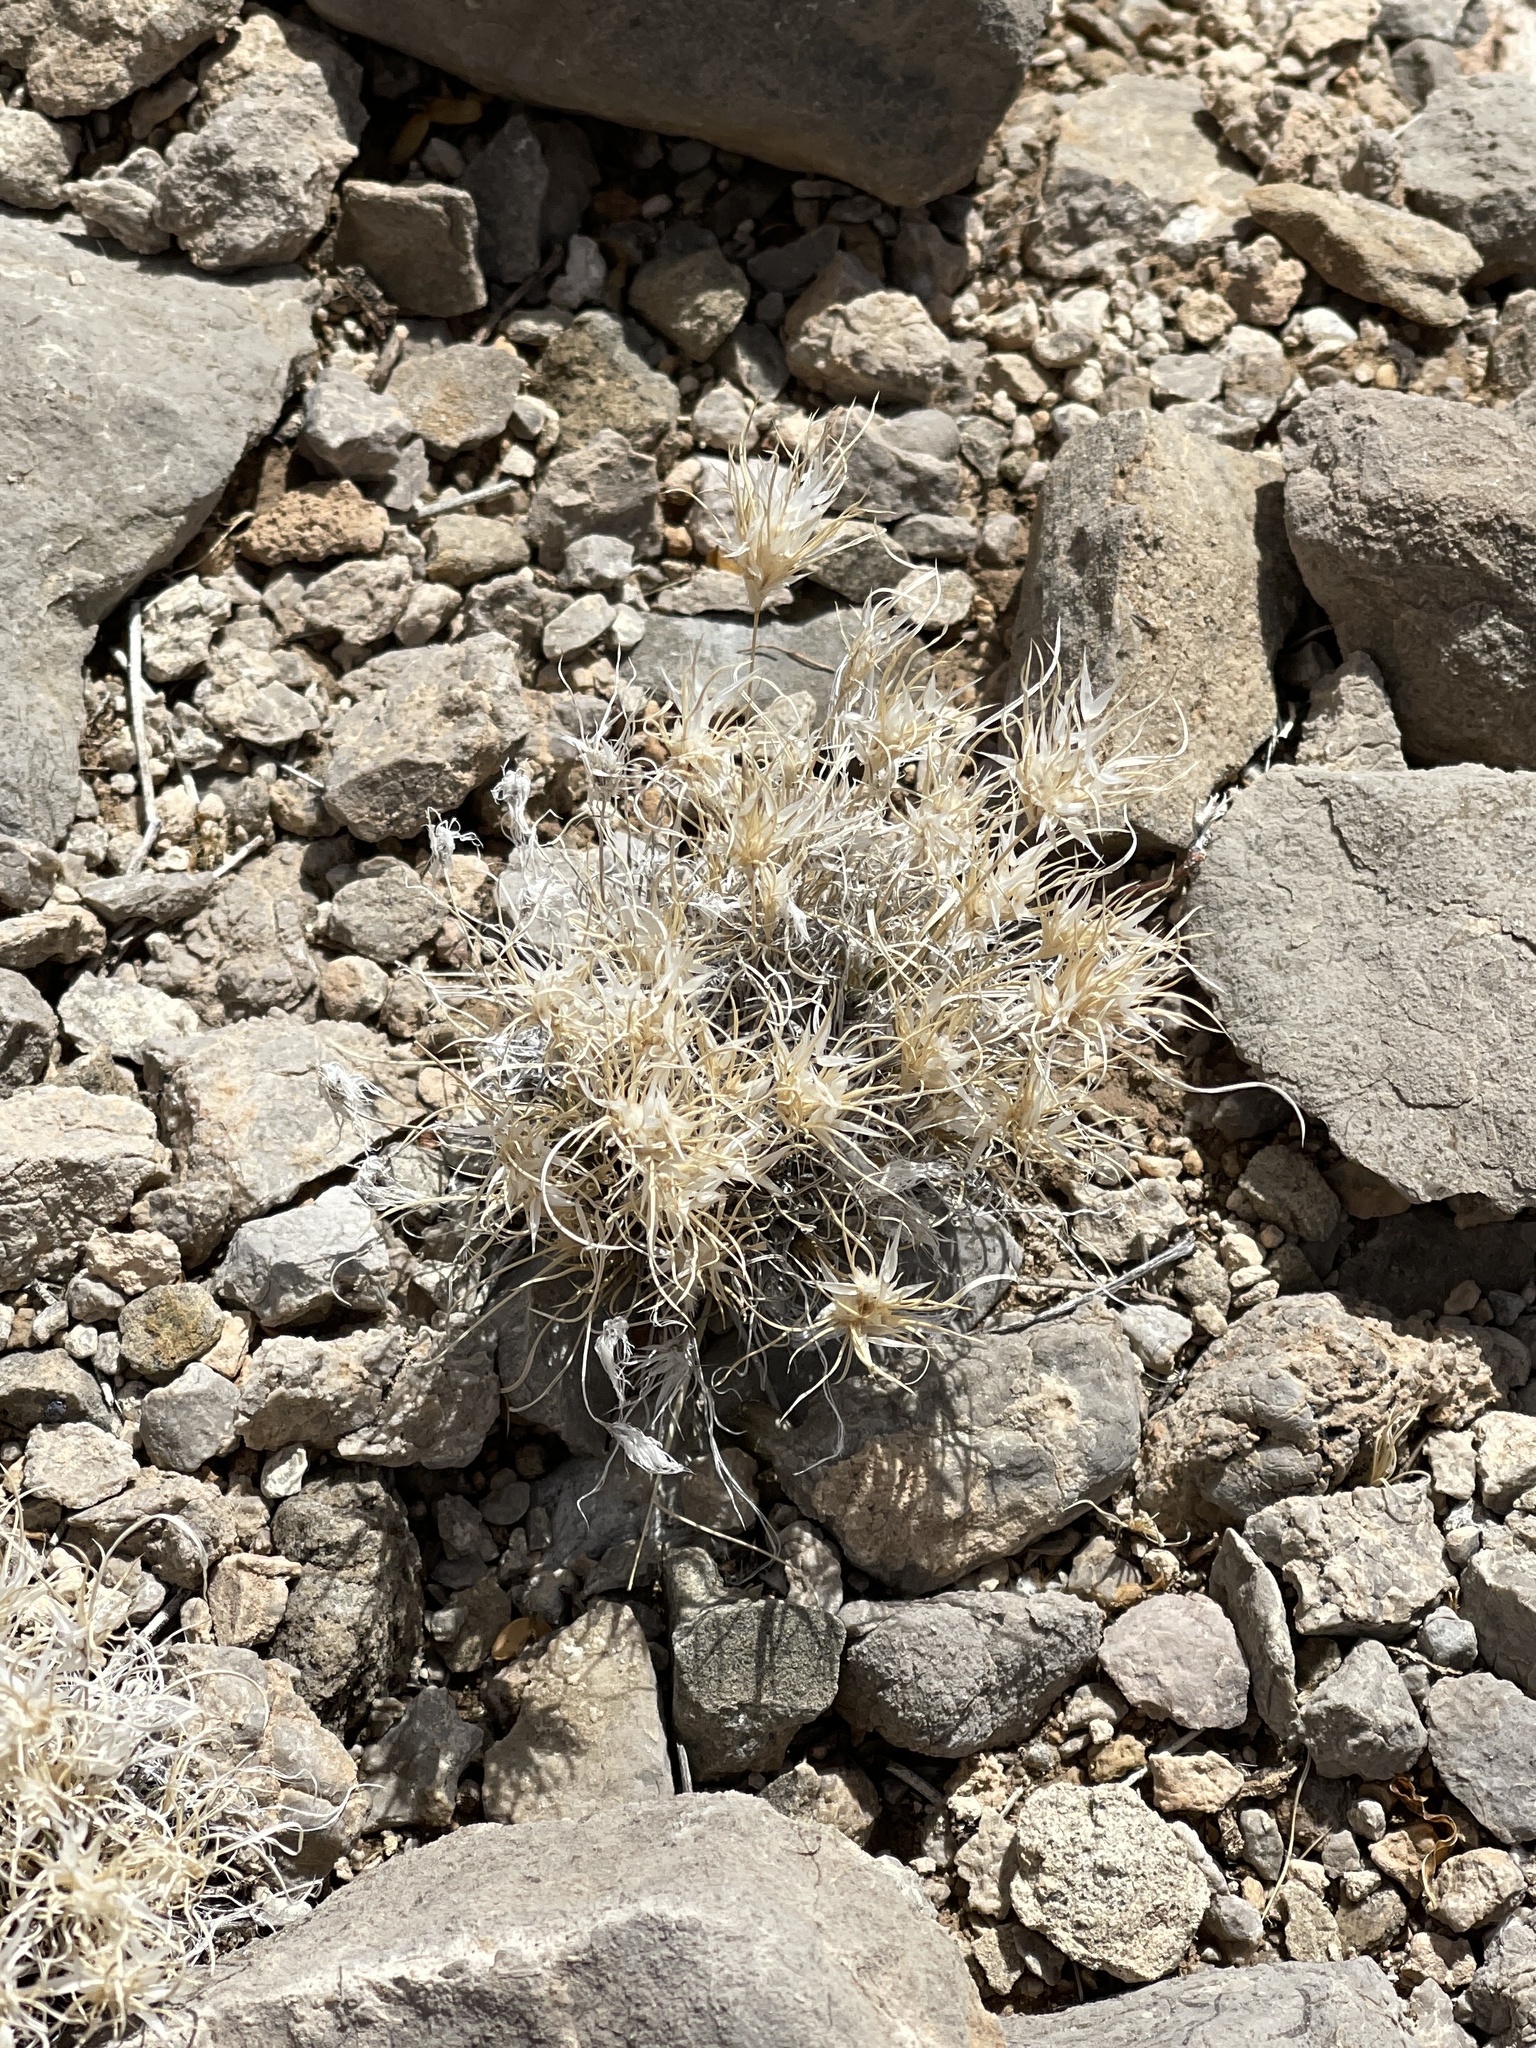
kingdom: Plantae
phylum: Tracheophyta
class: Liliopsida
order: Poales
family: Poaceae
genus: Dasyochloa
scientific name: Dasyochloa pulchella
